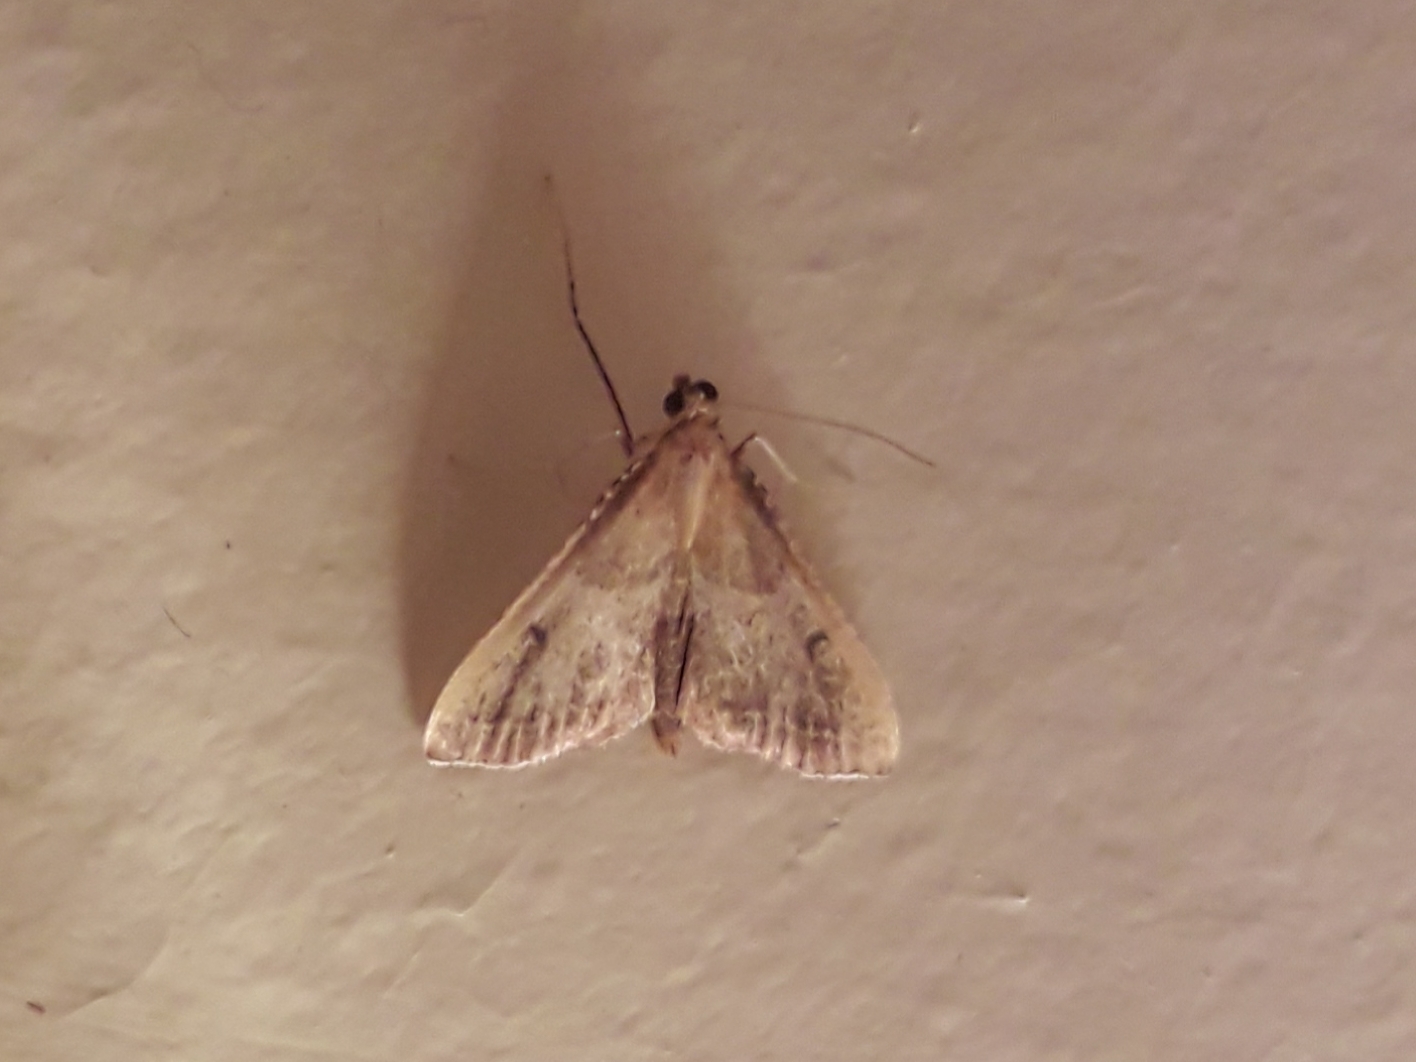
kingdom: Animalia
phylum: Arthropoda
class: Insecta
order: Lepidoptera
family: Pyralidae
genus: Endotricha
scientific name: Endotricha flammealis
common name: Rosy tabby
